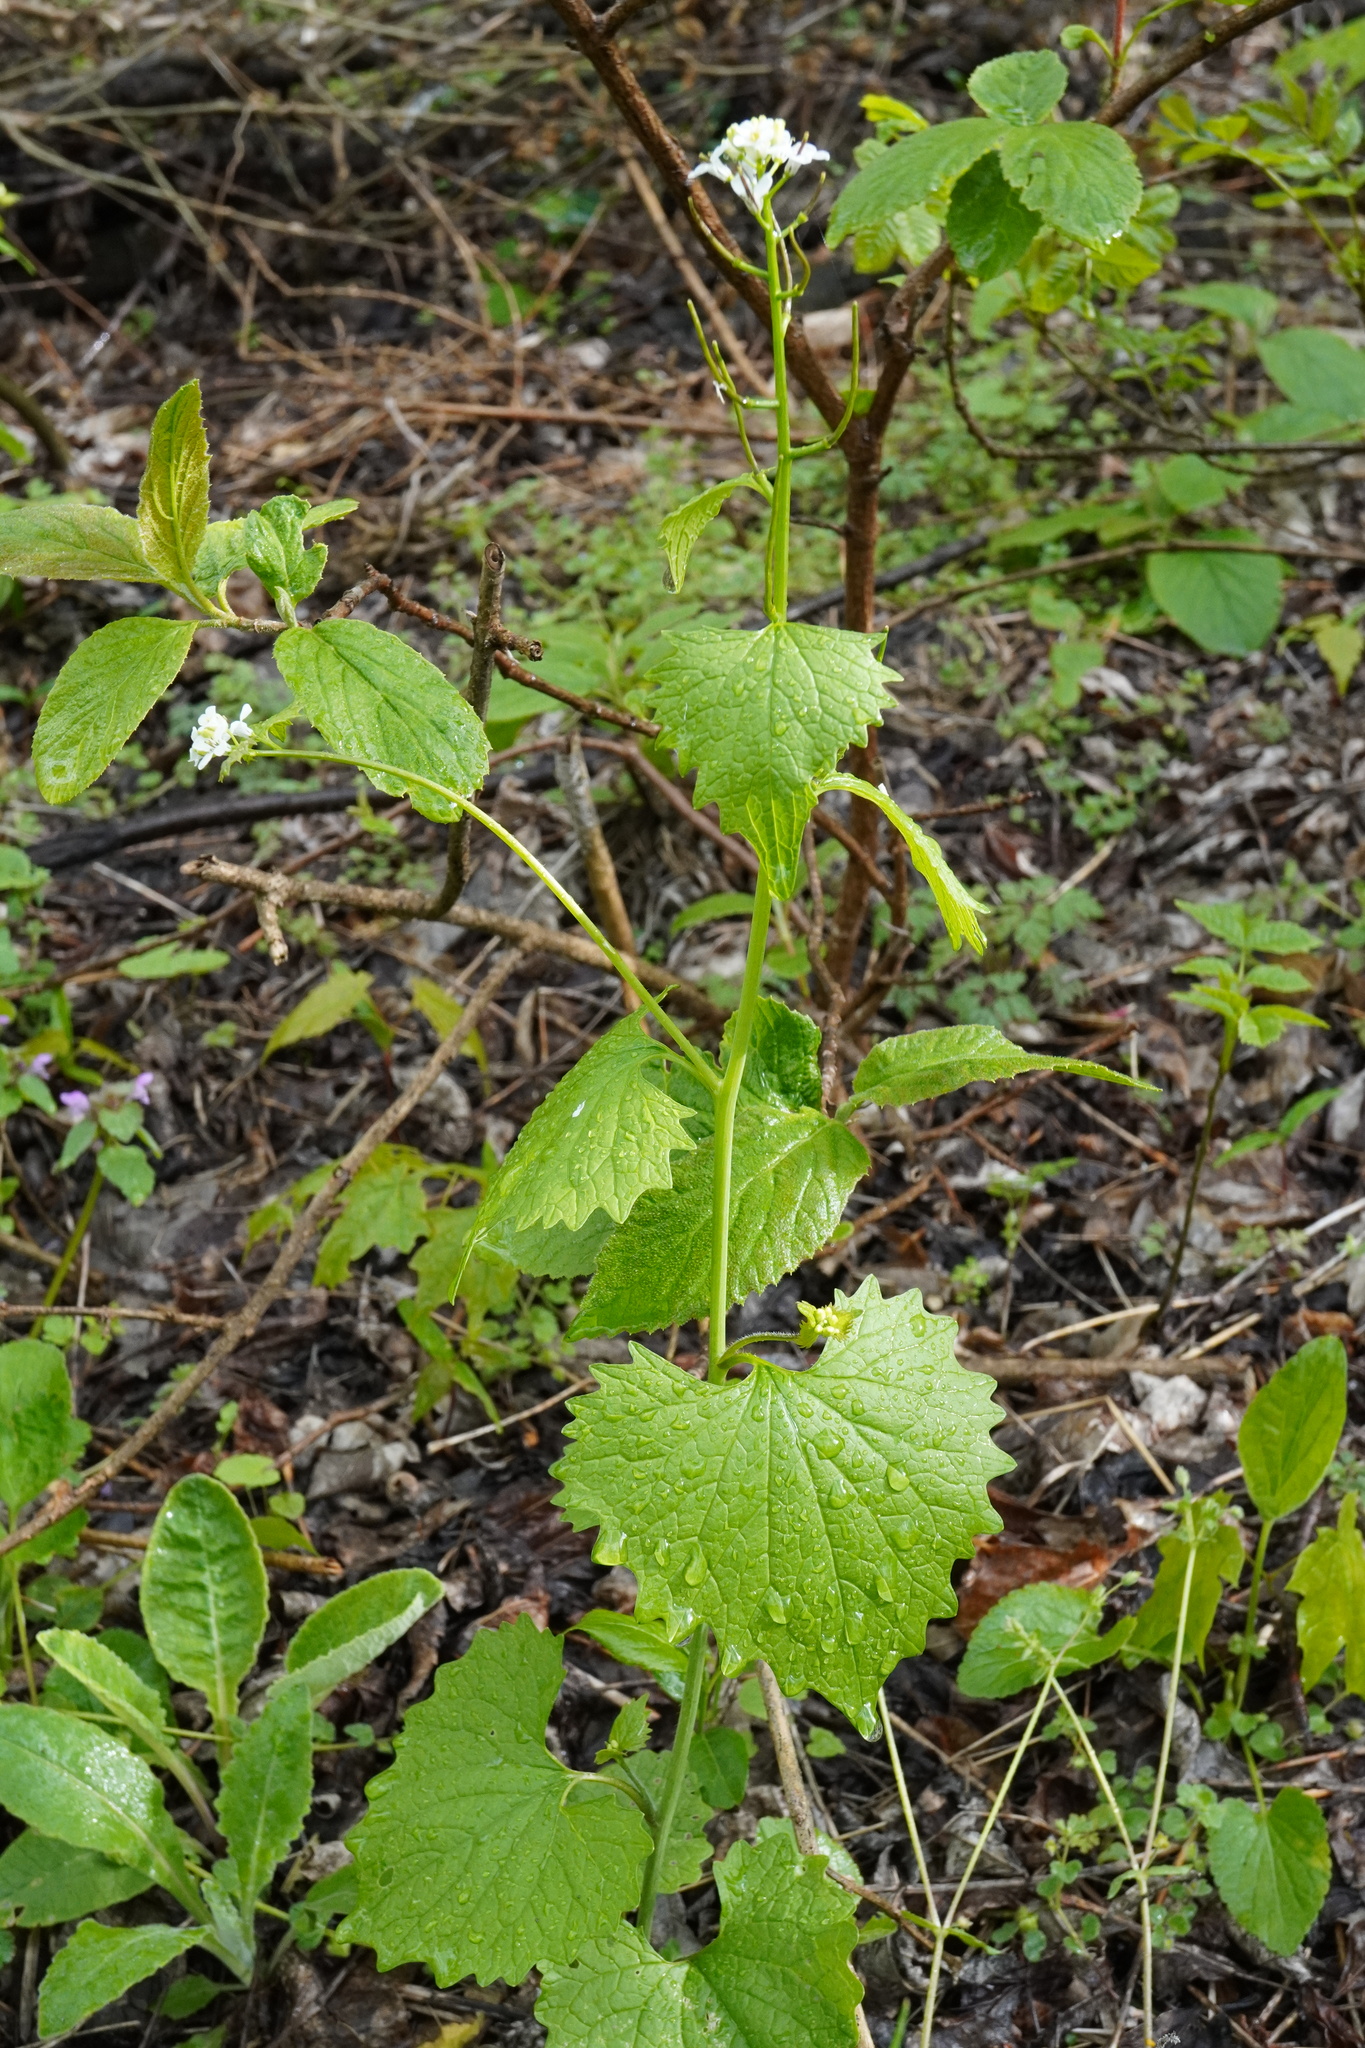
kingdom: Plantae
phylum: Tracheophyta
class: Magnoliopsida
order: Brassicales
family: Brassicaceae
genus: Alliaria
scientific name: Alliaria petiolata
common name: Garlic mustard
